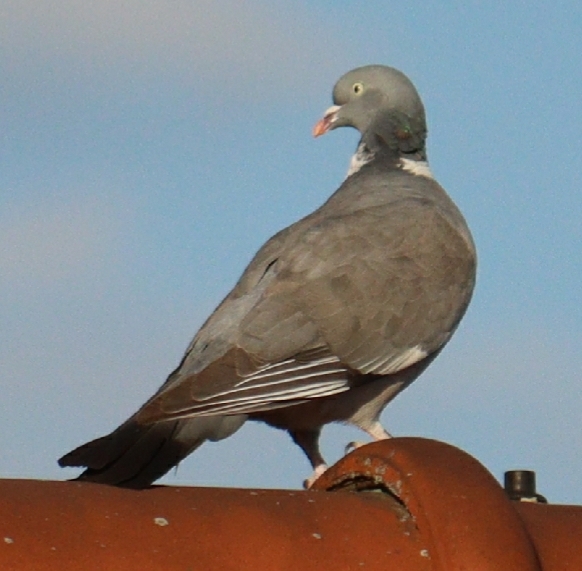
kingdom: Animalia
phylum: Chordata
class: Aves
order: Columbiformes
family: Columbidae
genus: Columba
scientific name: Columba palumbus
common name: Common wood pigeon
